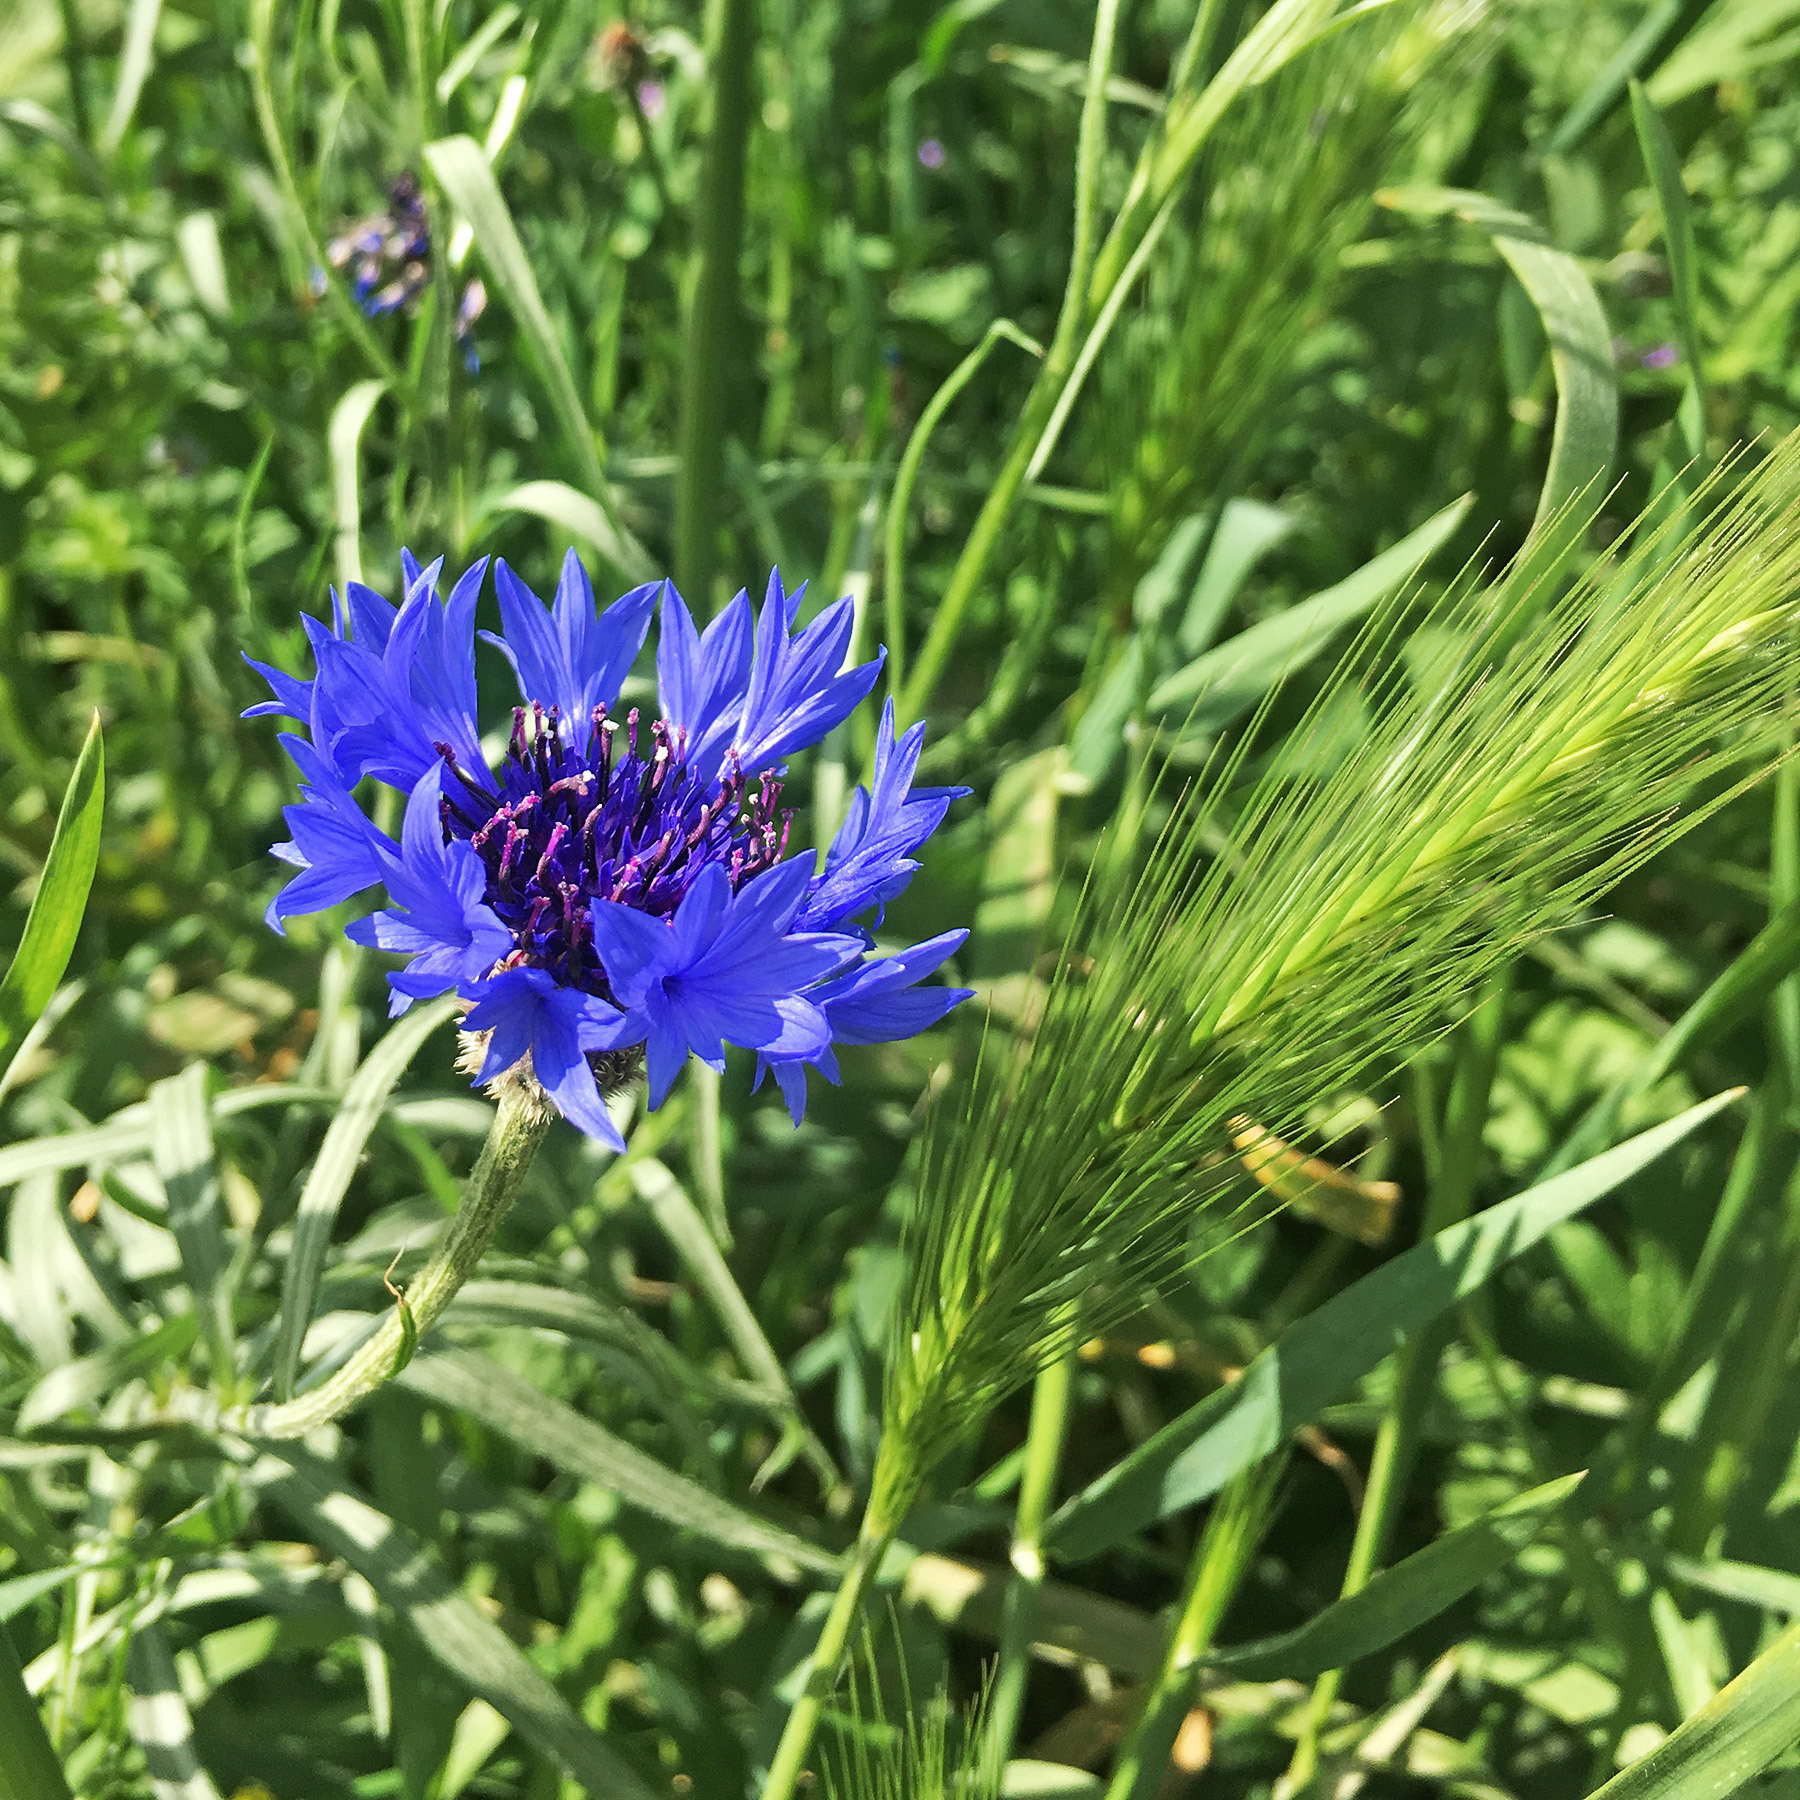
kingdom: Plantae
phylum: Tracheophyta
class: Magnoliopsida
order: Asterales
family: Asteraceae
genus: Centaurea
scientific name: Centaurea cyanus
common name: Cornflower
